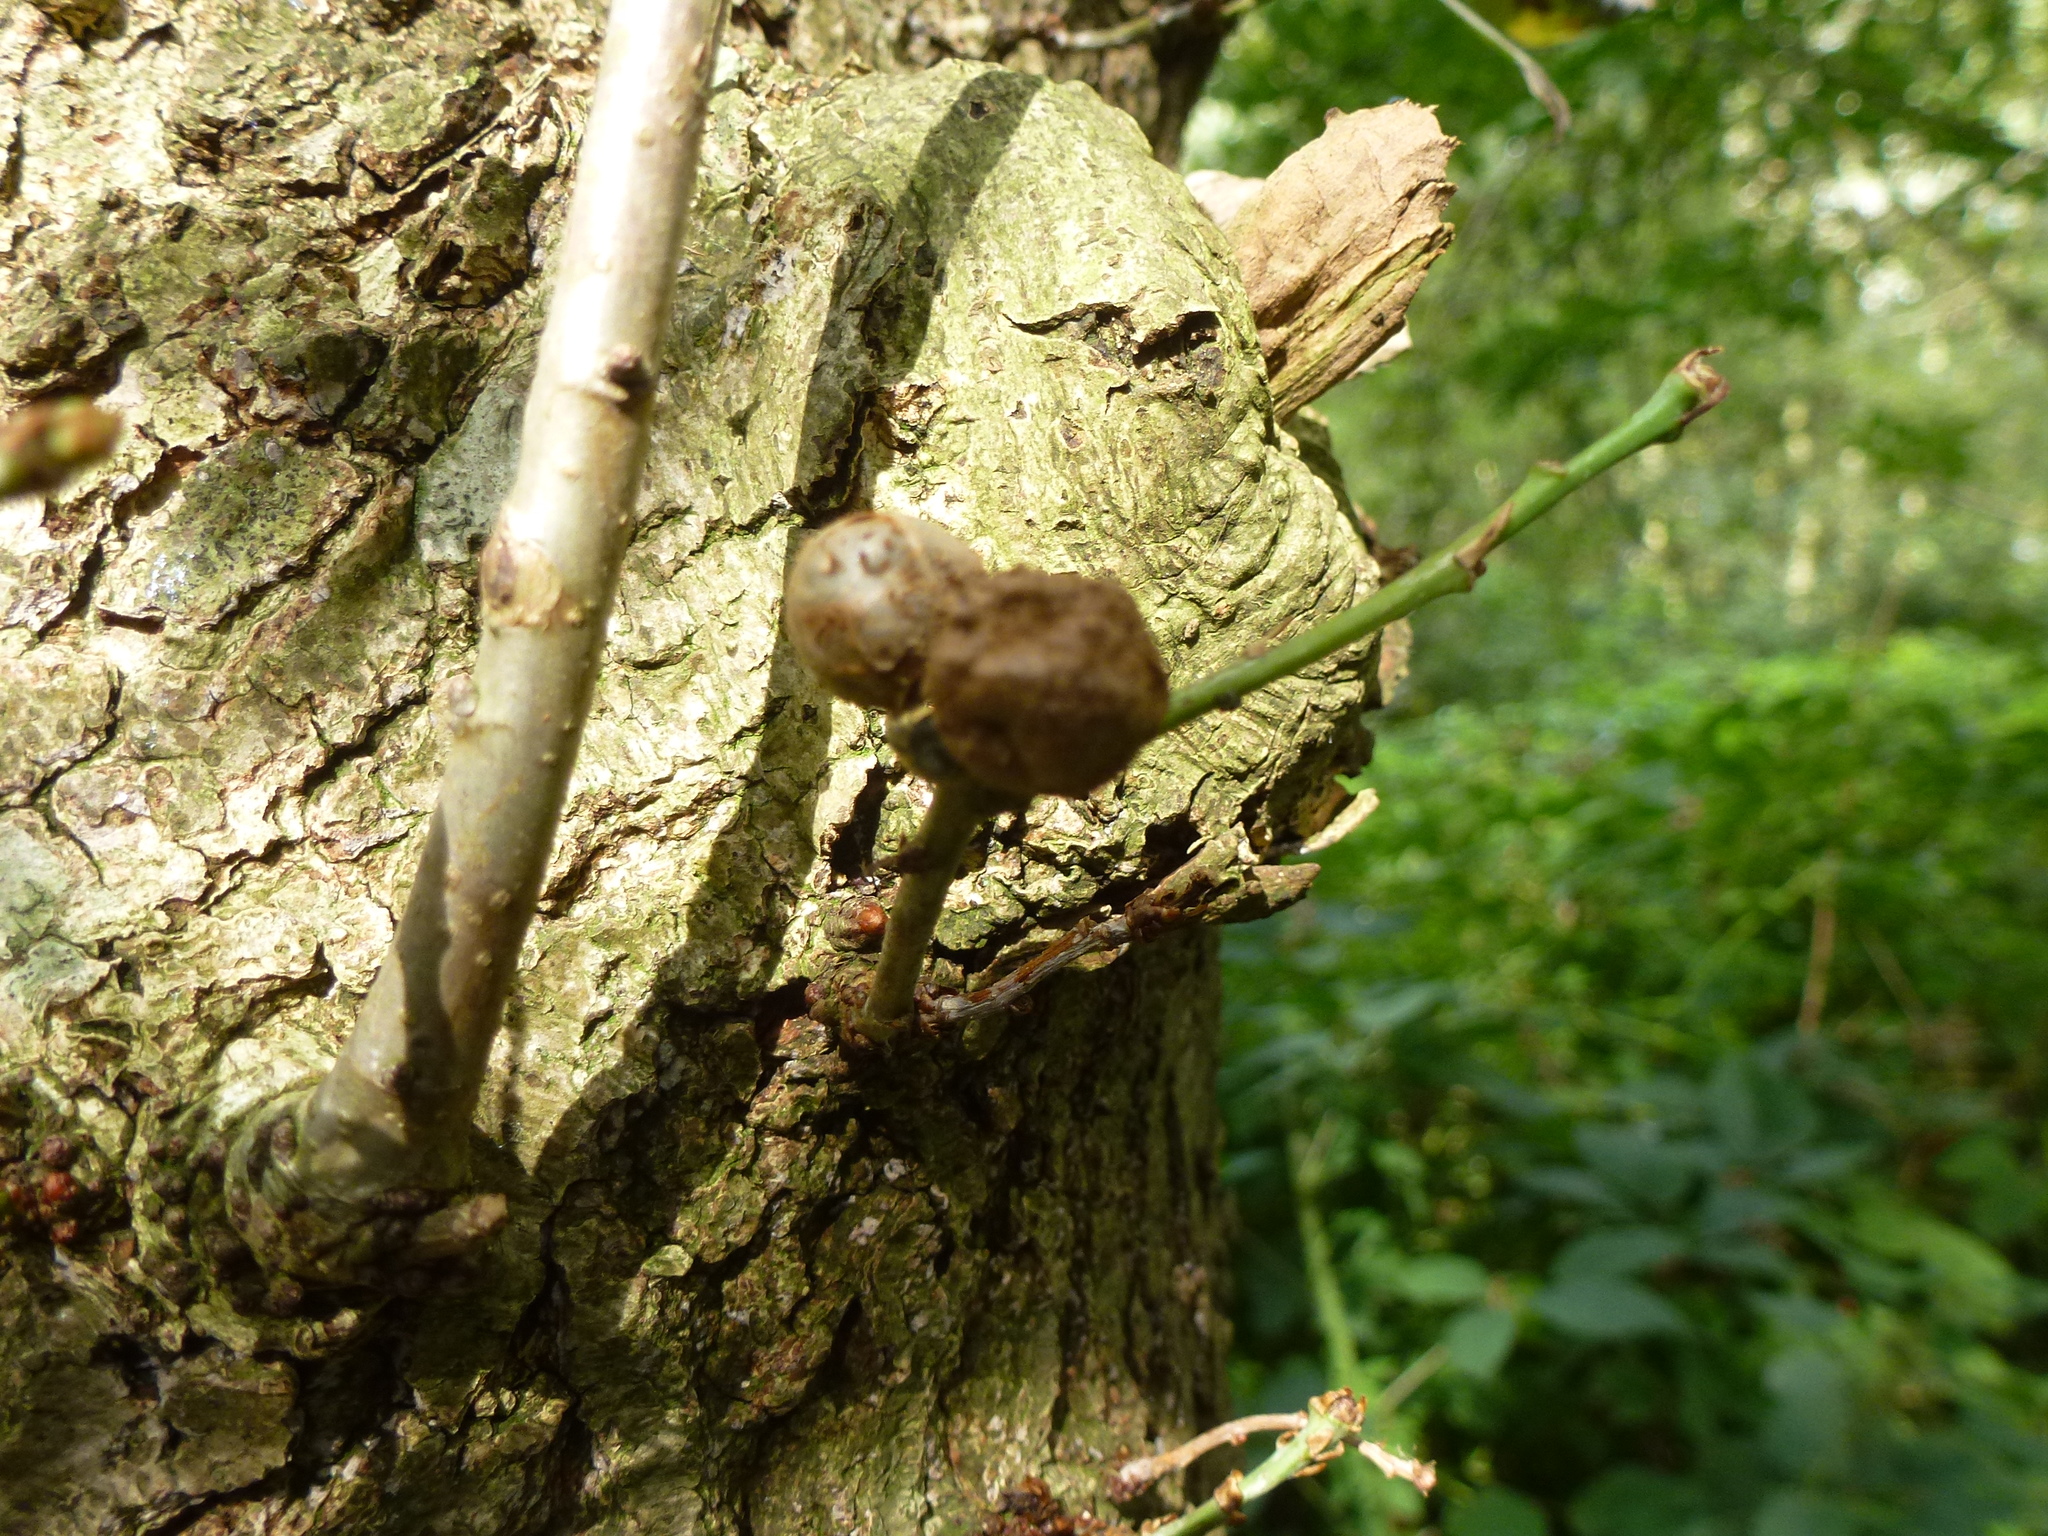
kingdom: Animalia
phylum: Arthropoda
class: Insecta
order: Hymenoptera
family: Cynipidae
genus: Andricus
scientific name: Andricus lignicolus
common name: Cola-nut gall
